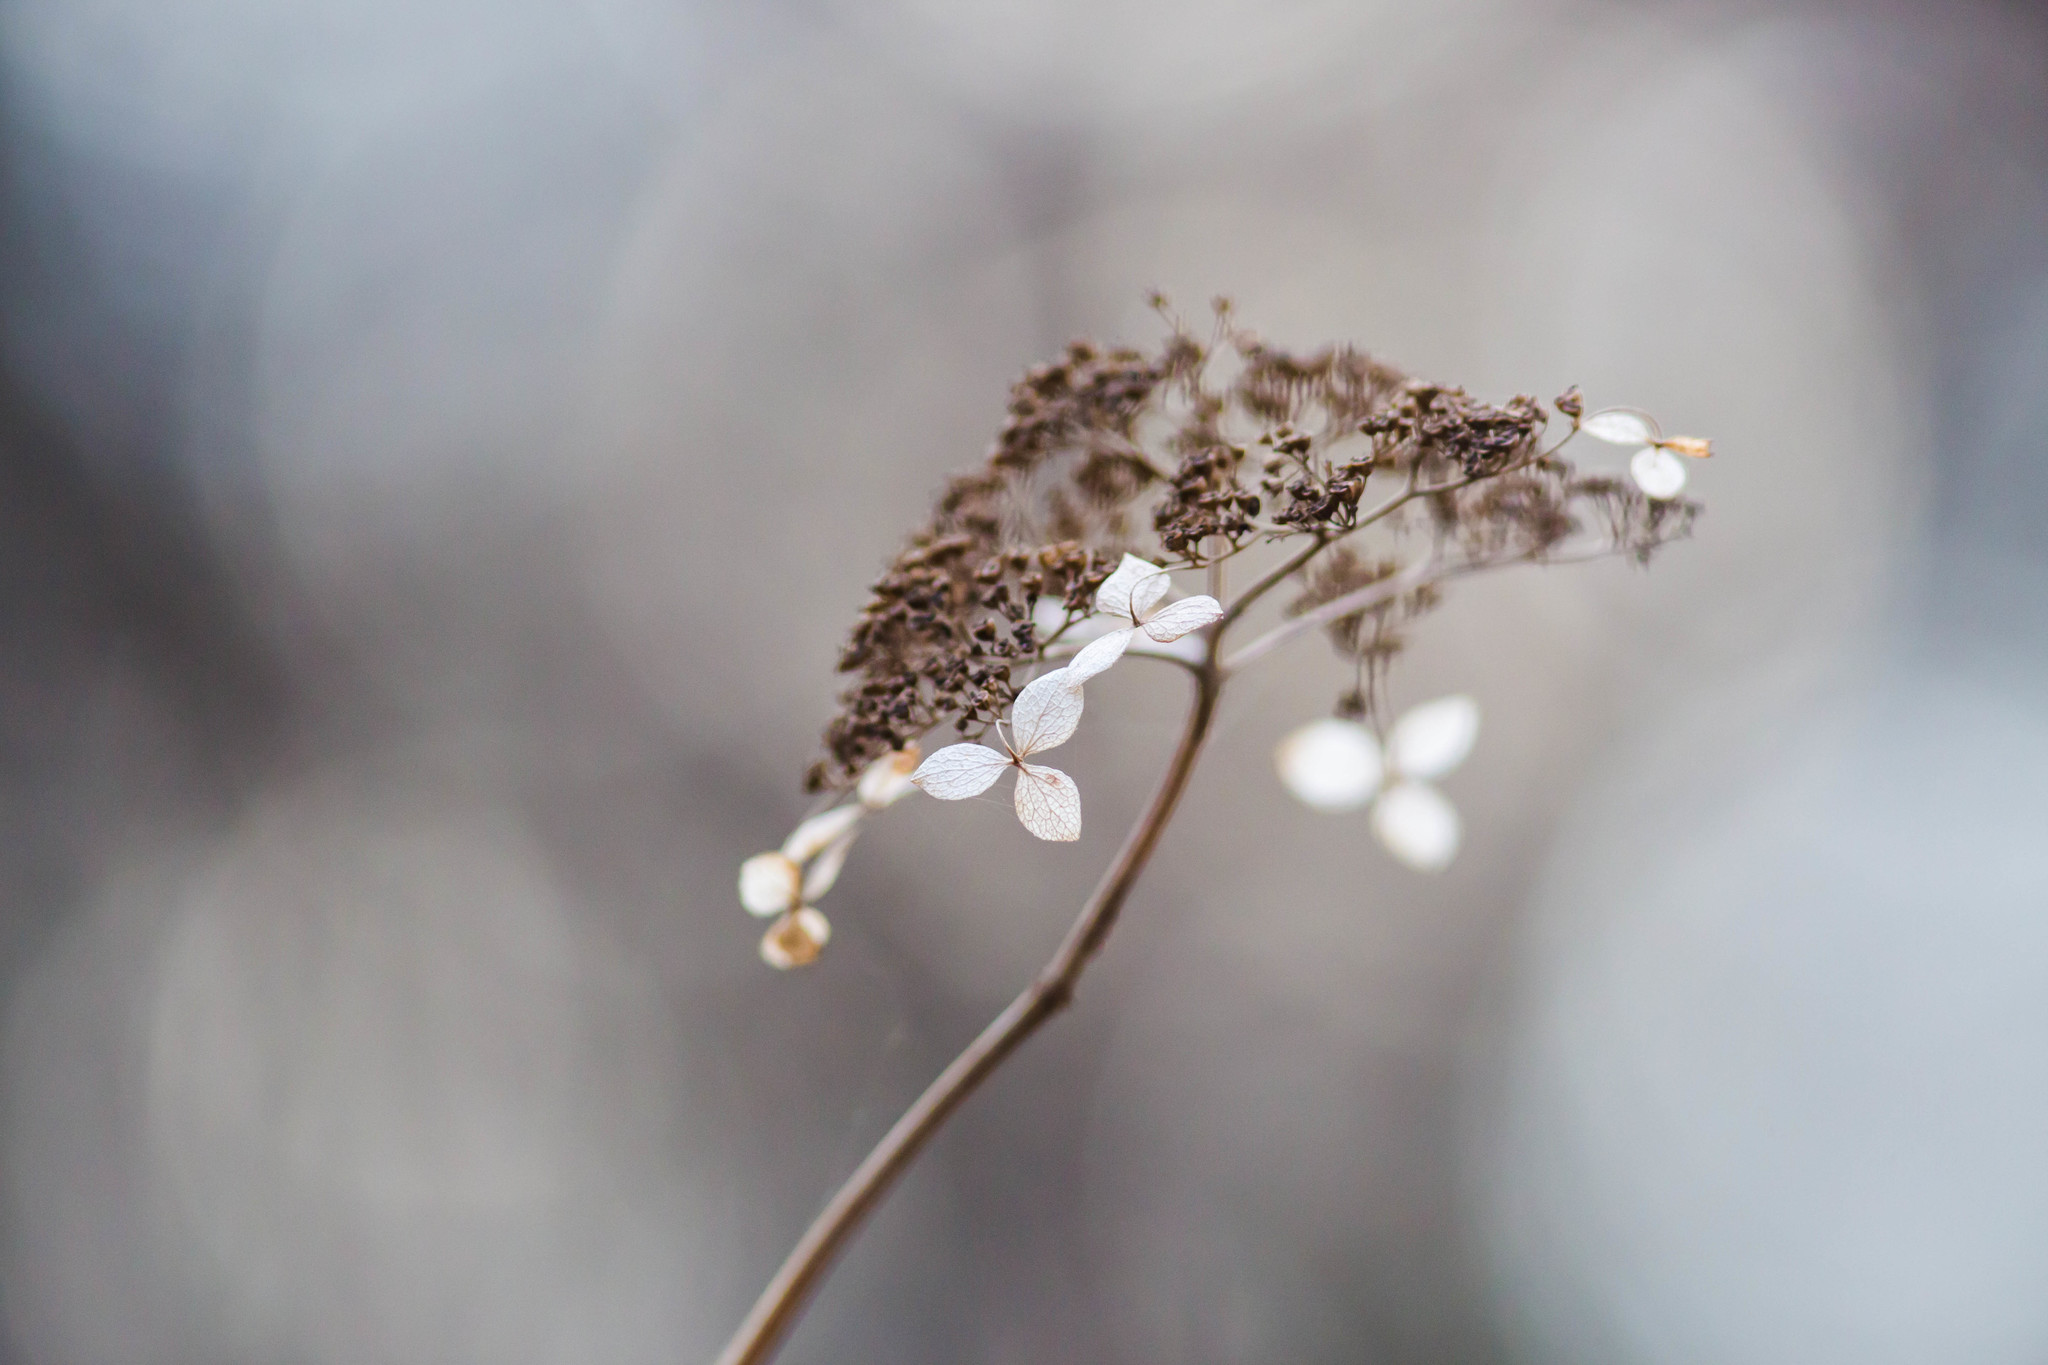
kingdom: Plantae
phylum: Tracheophyta
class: Magnoliopsida
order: Cornales
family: Hydrangeaceae
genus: Hydrangea
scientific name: Hydrangea arborescens
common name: Sevenbark
